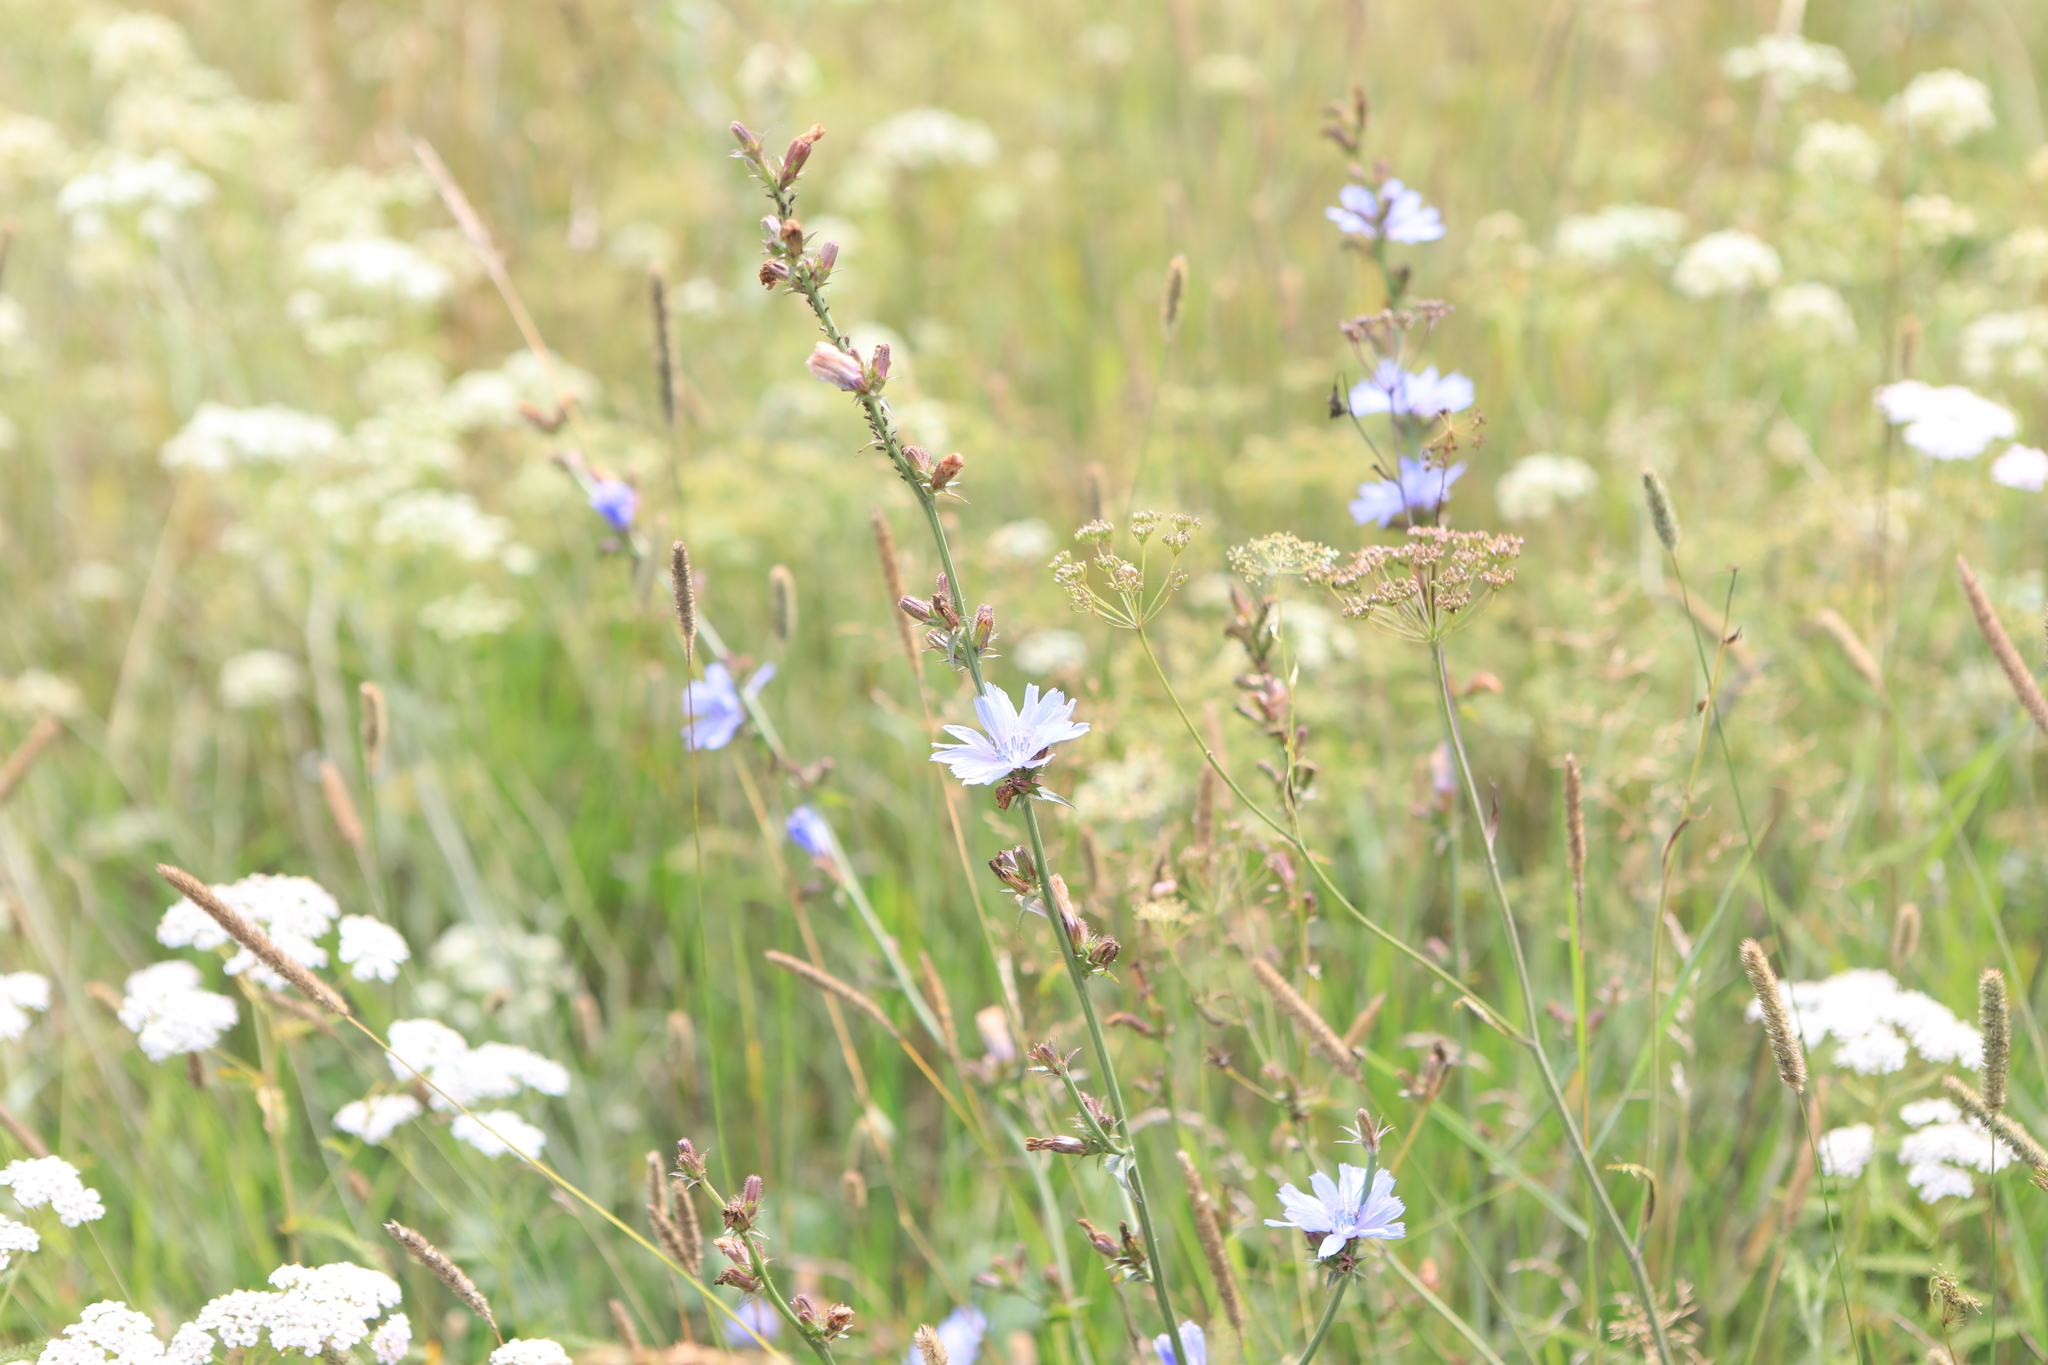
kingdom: Plantae
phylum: Tracheophyta
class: Magnoliopsida
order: Asterales
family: Asteraceae
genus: Cichorium
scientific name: Cichorium intybus
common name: Chicory
